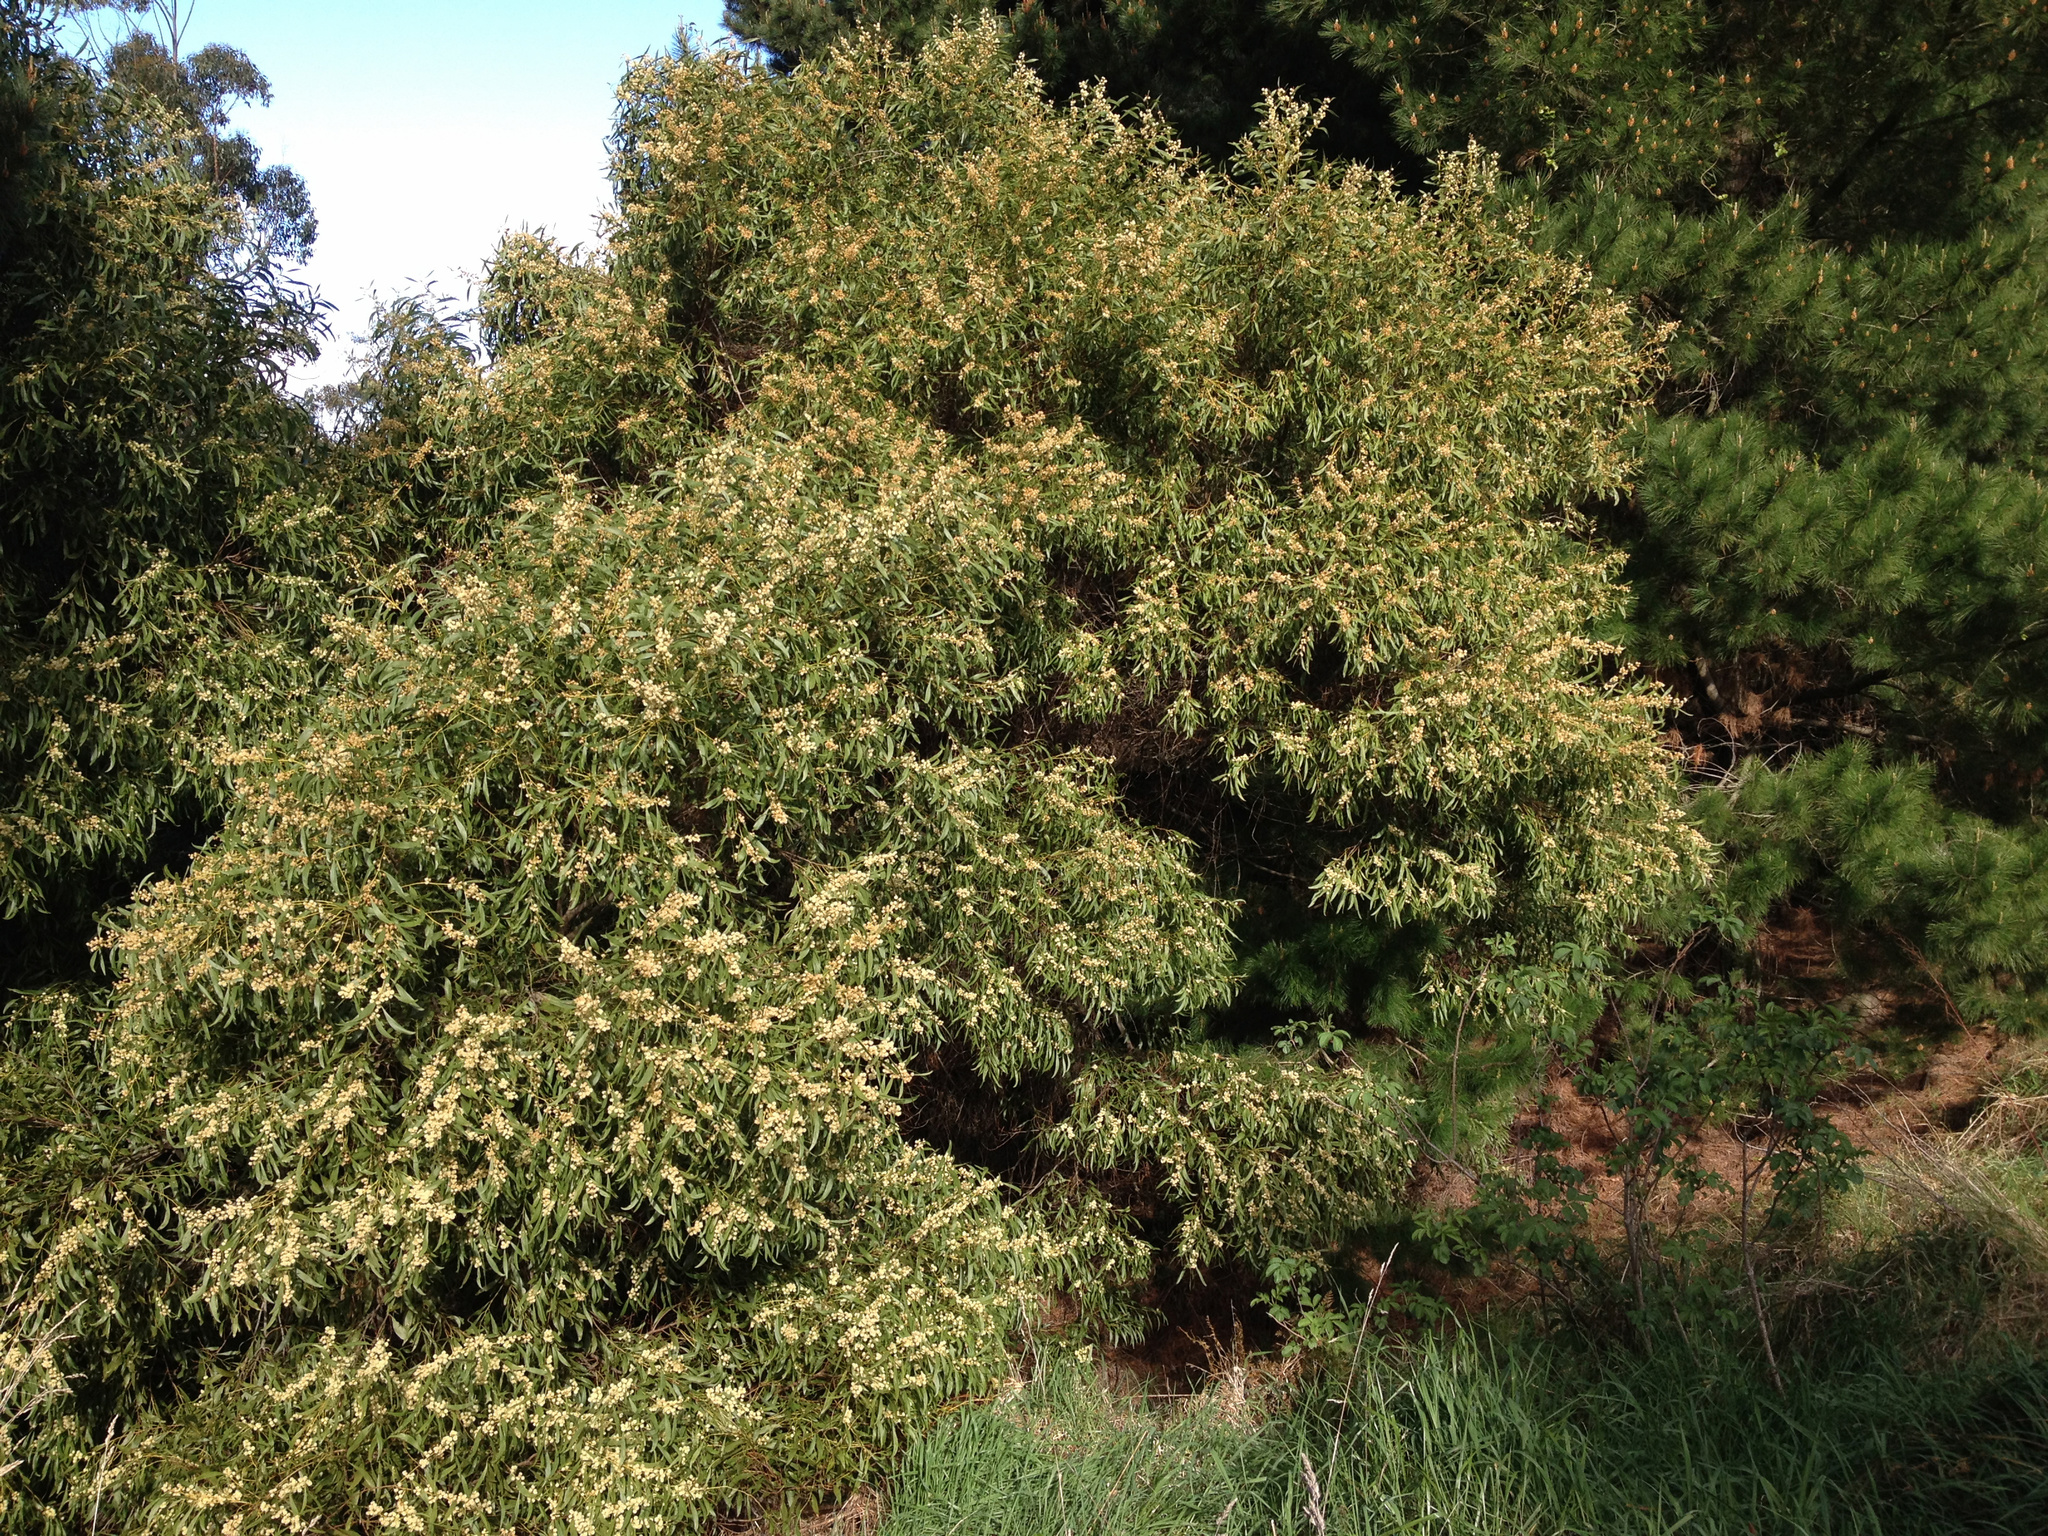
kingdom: Plantae
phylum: Tracheophyta
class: Magnoliopsida
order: Fabales
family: Fabaceae
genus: Acacia
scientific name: Acacia melanoxylon
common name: Blackwood
